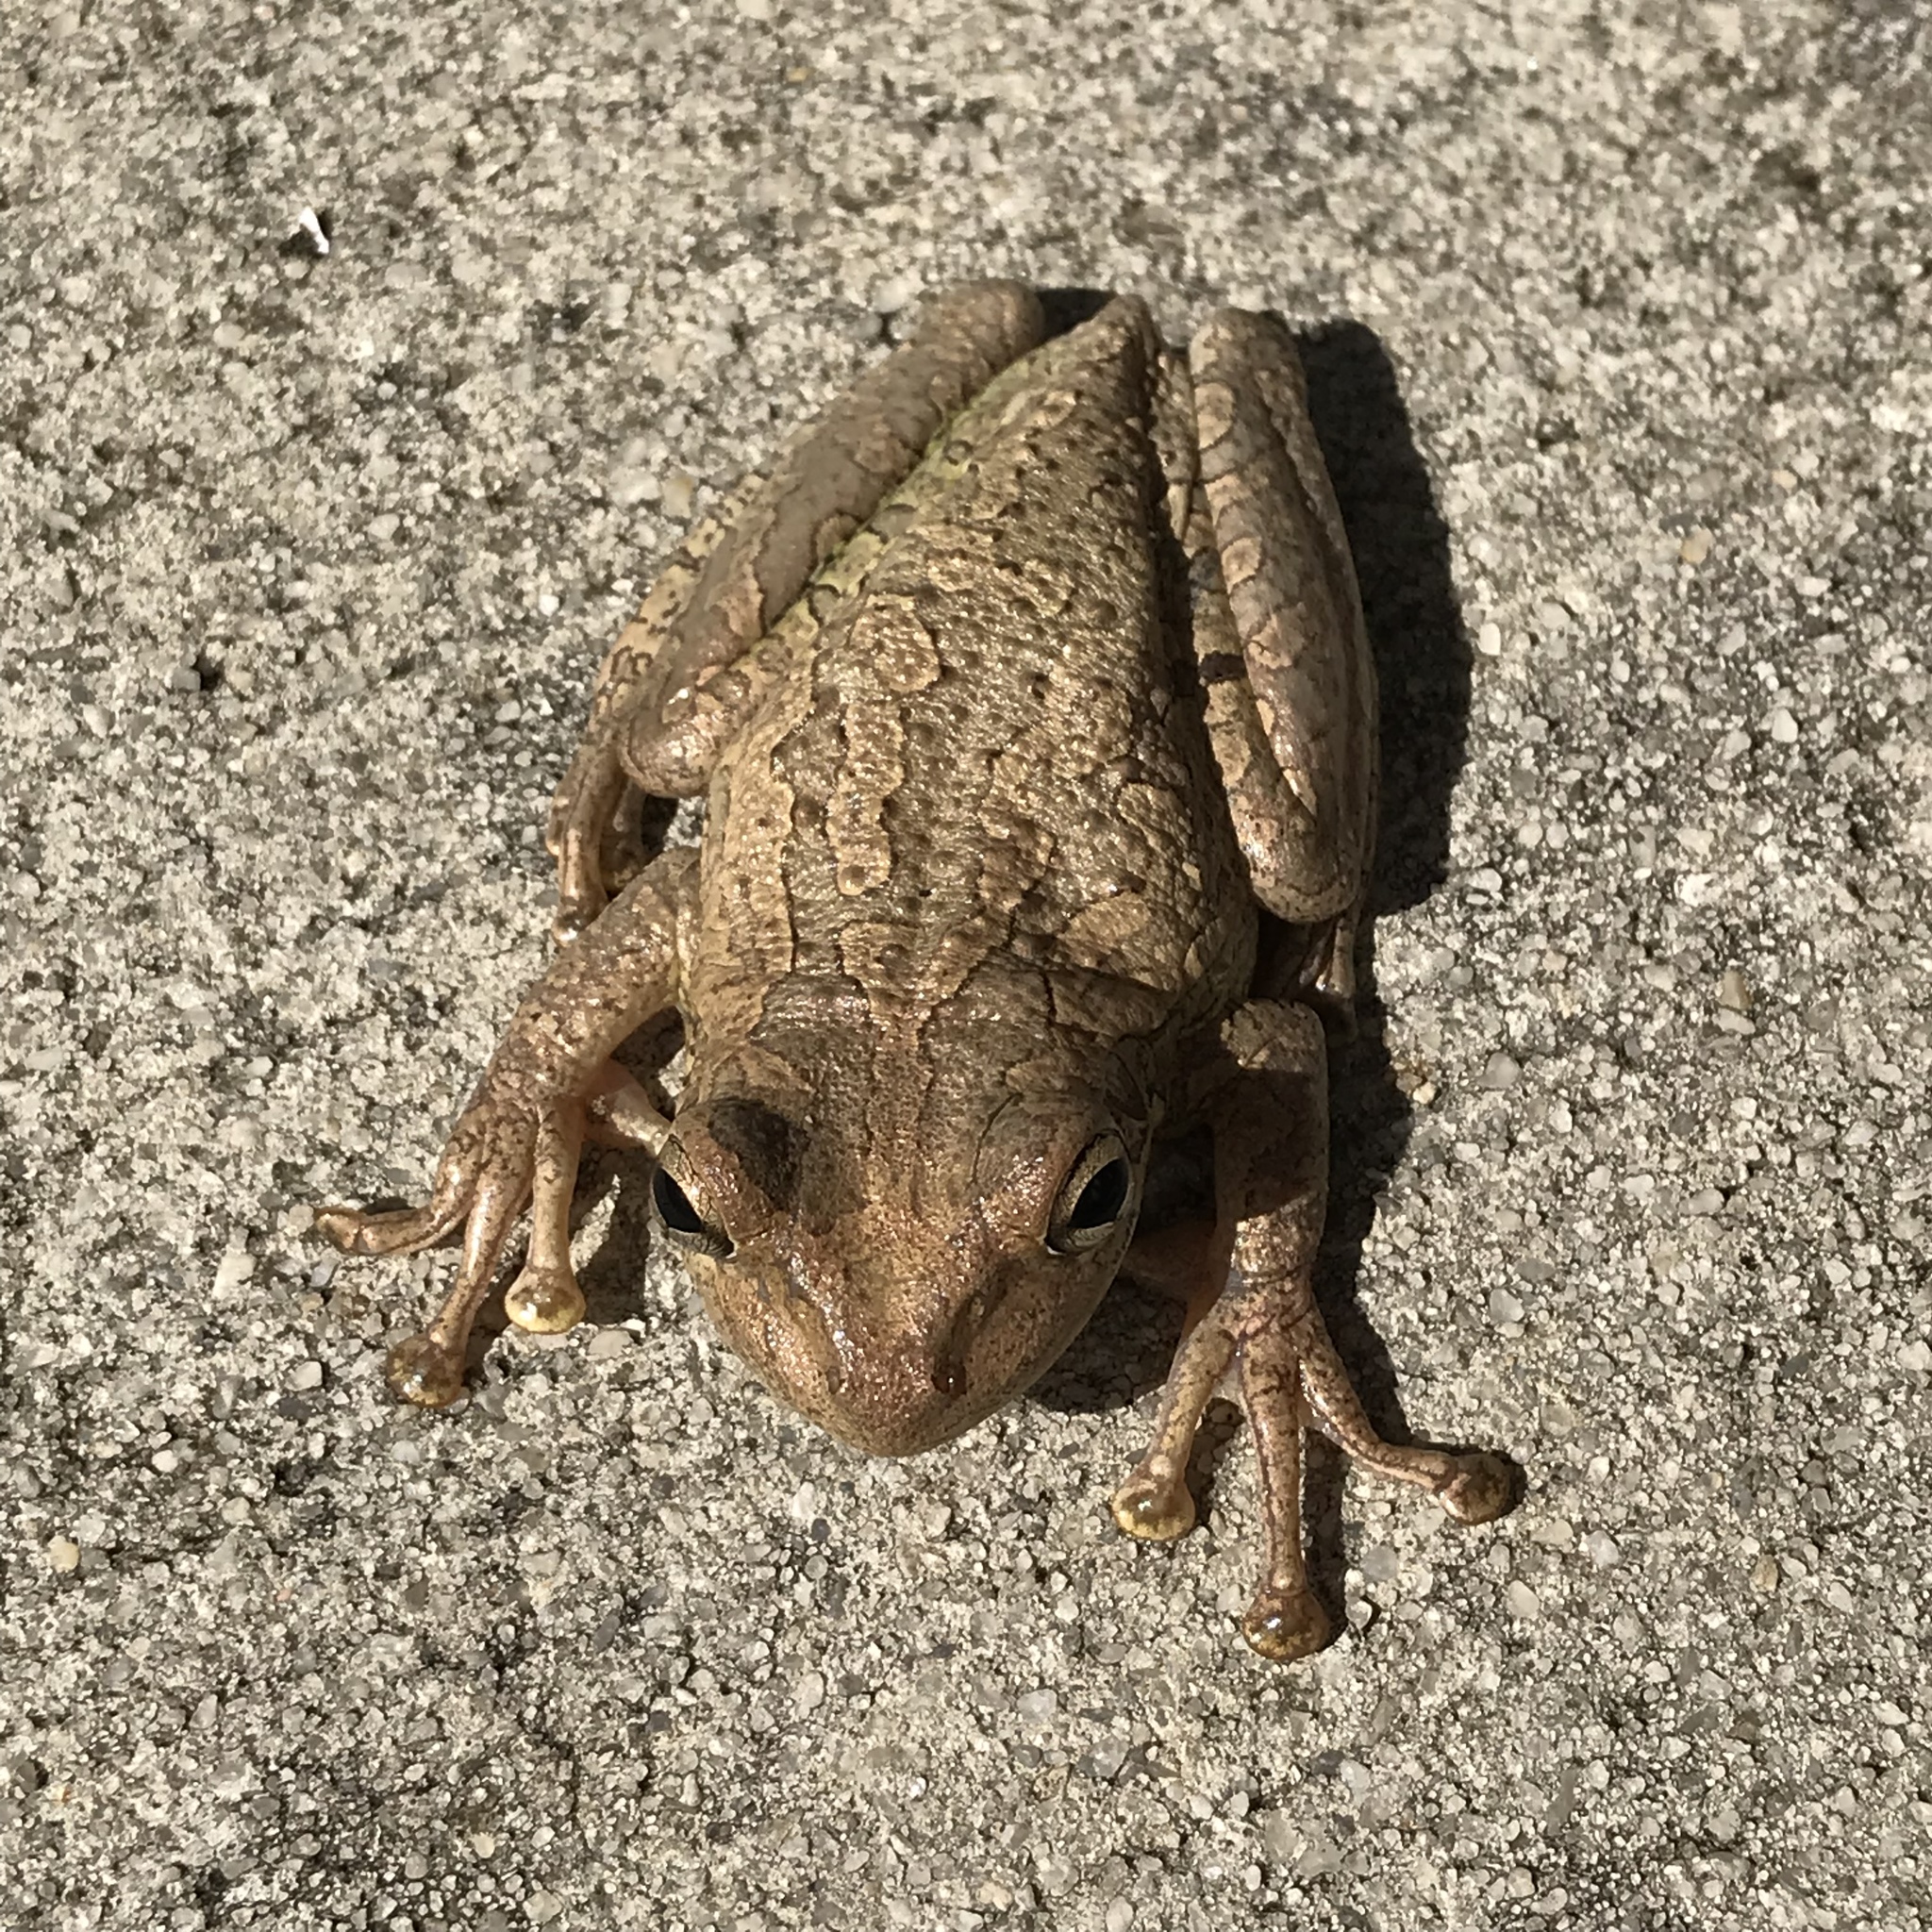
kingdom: Animalia
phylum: Chordata
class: Amphibia
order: Anura
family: Hylidae
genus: Osteopilus
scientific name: Osteopilus septentrionalis
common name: Cuban treefrog
